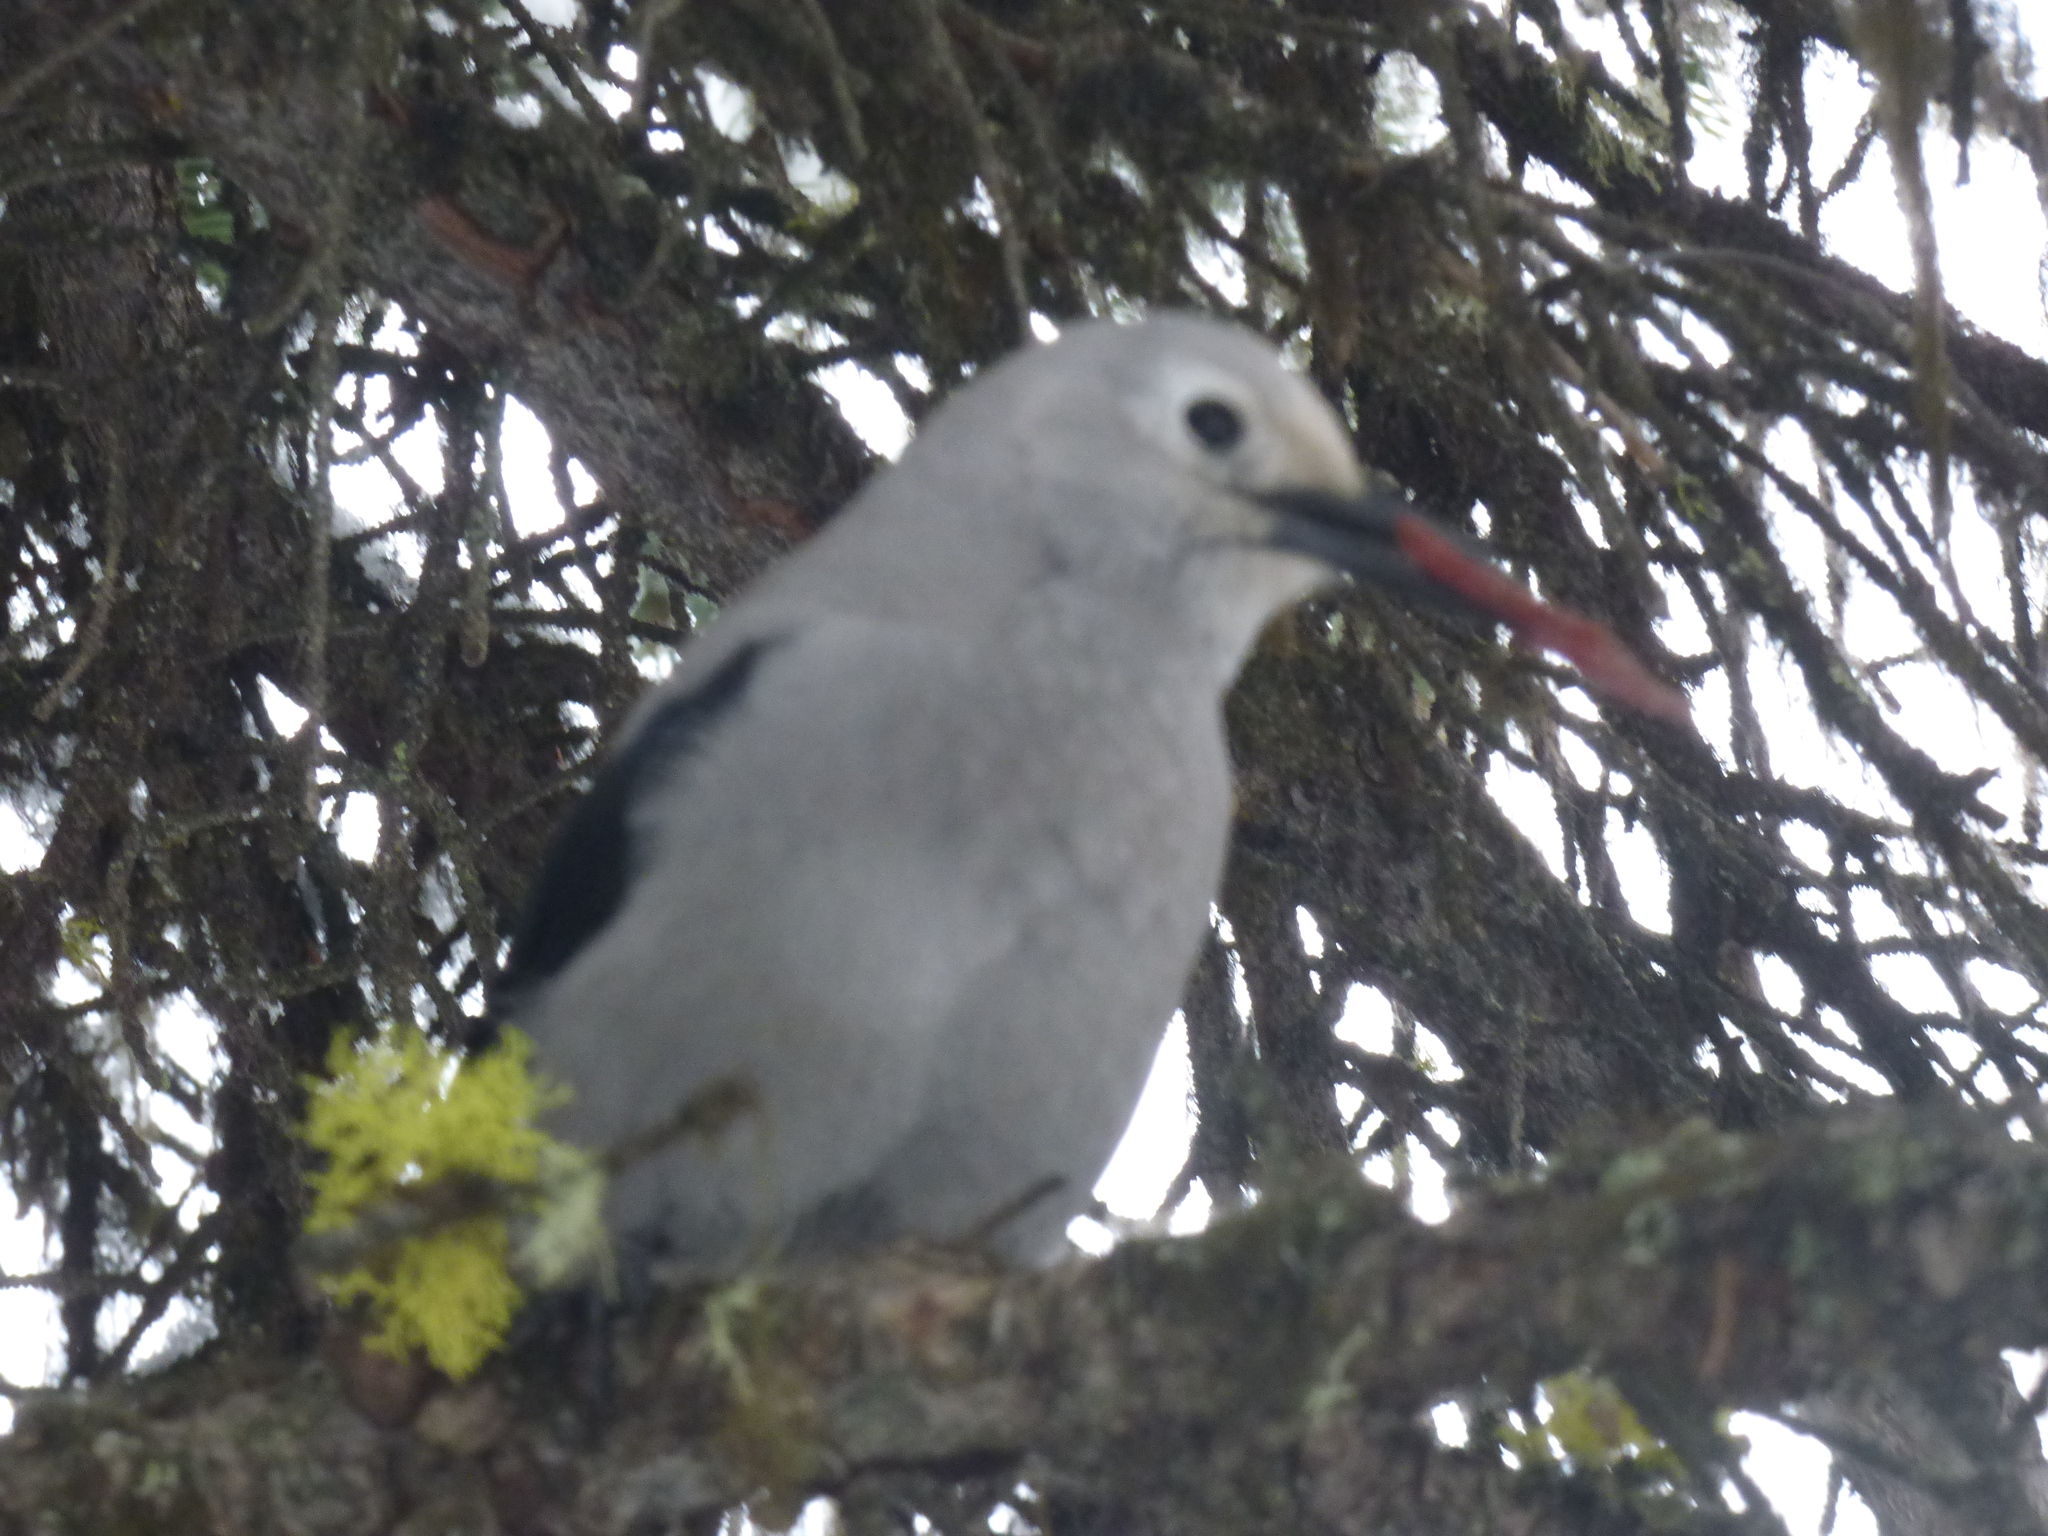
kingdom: Animalia
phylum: Chordata
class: Aves
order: Passeriformes
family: Corvidae
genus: Nucifraga
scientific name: Nucifraga columbiana
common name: Clark's nutcracker
